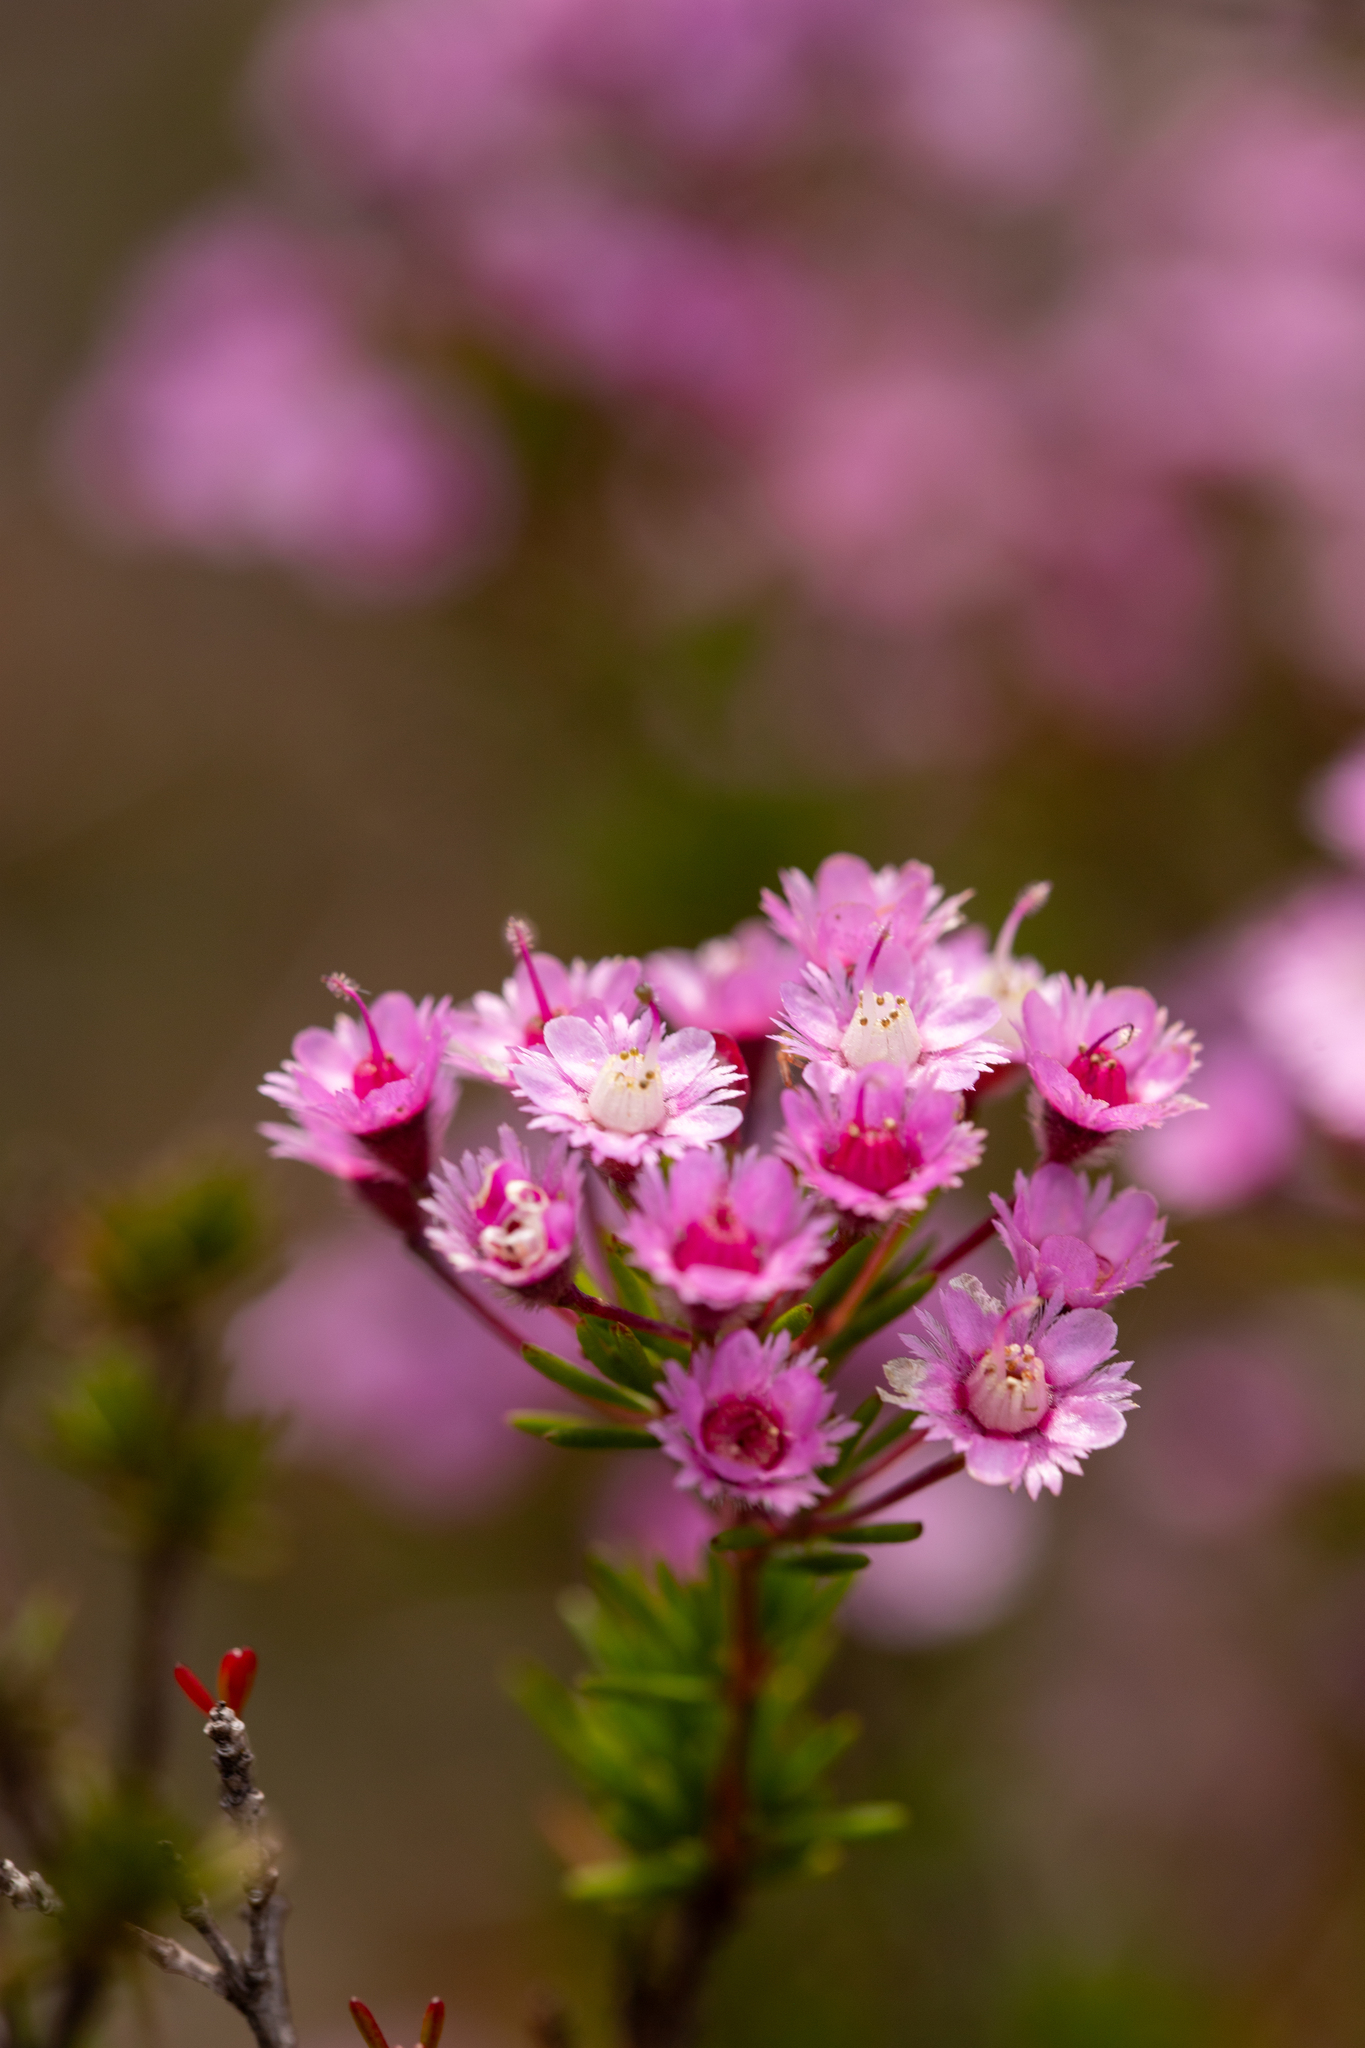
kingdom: Plantae
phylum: Tracheophyta
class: Magnoliopsida
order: Myrtales
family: Myrtaceae
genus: Verticordia
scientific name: Verticordia plumosa
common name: Plume feather-flower
